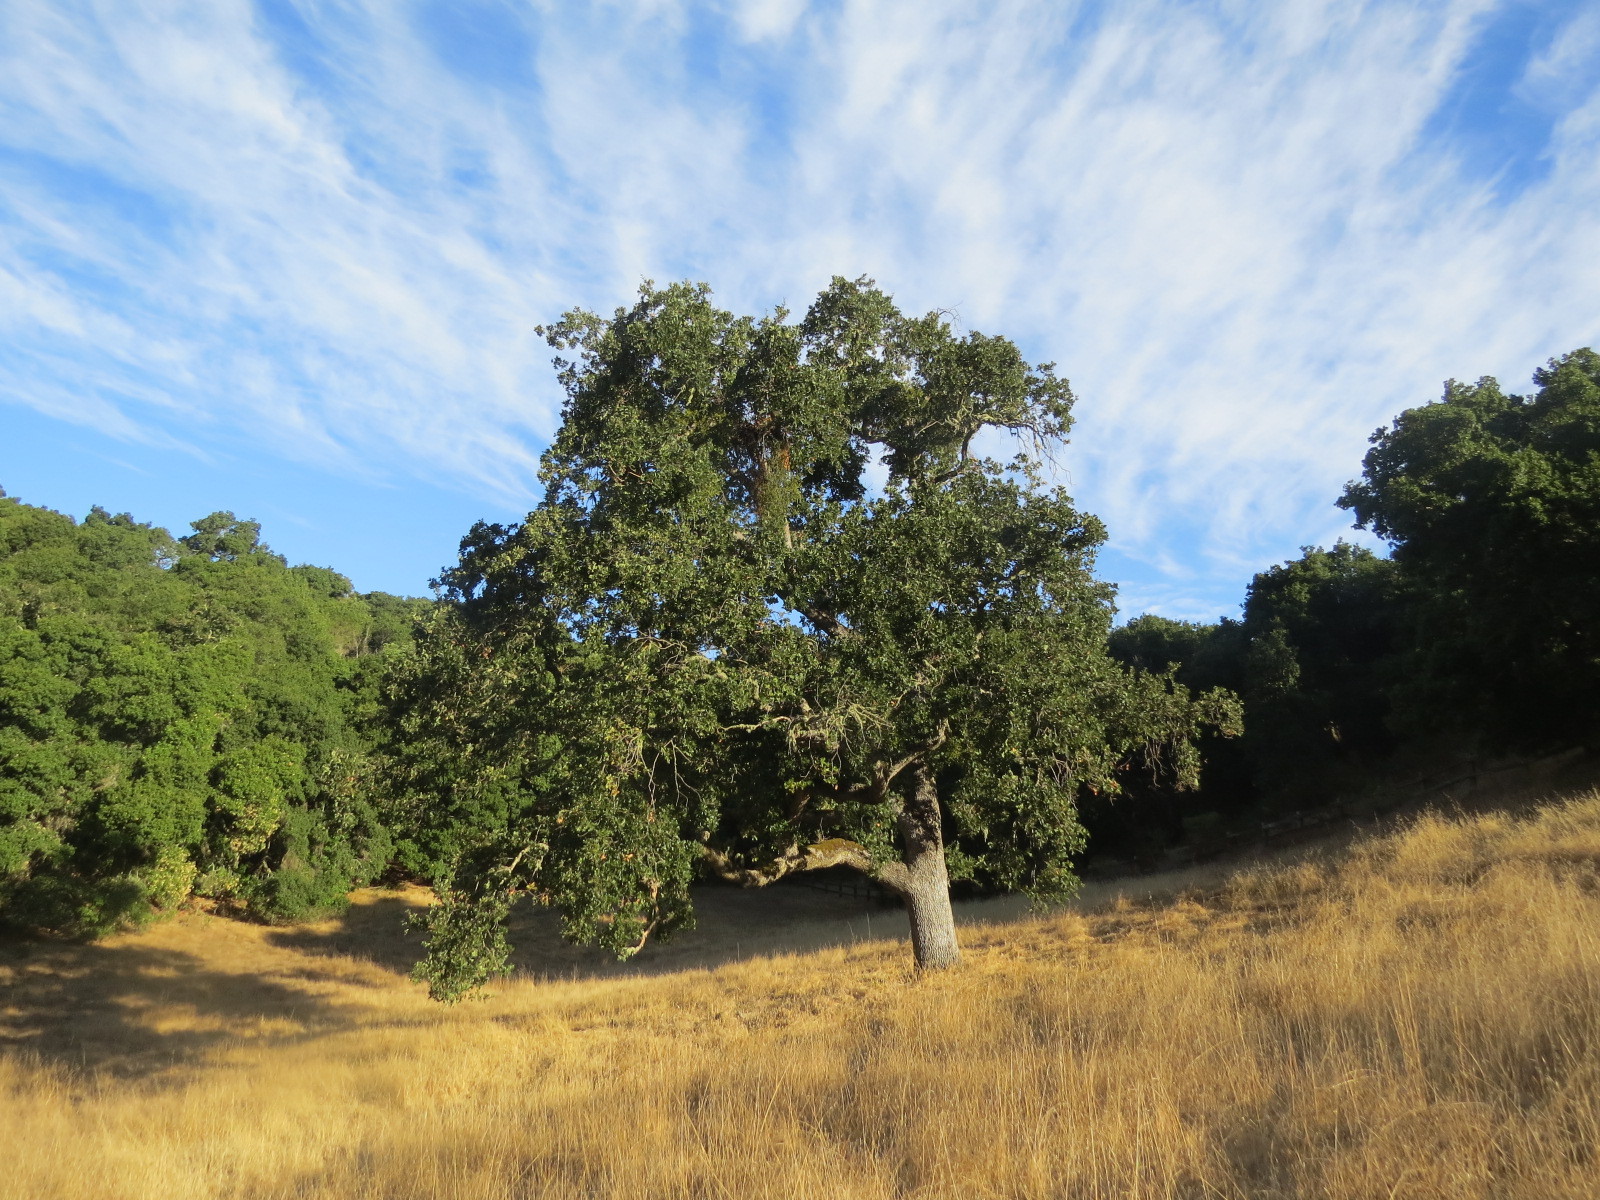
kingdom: Plantae
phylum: Tracheophyta
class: Magnoliopsida
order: Fagales
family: Fagaceae
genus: Quercus
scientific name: Quercus lobata
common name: Valley oak
